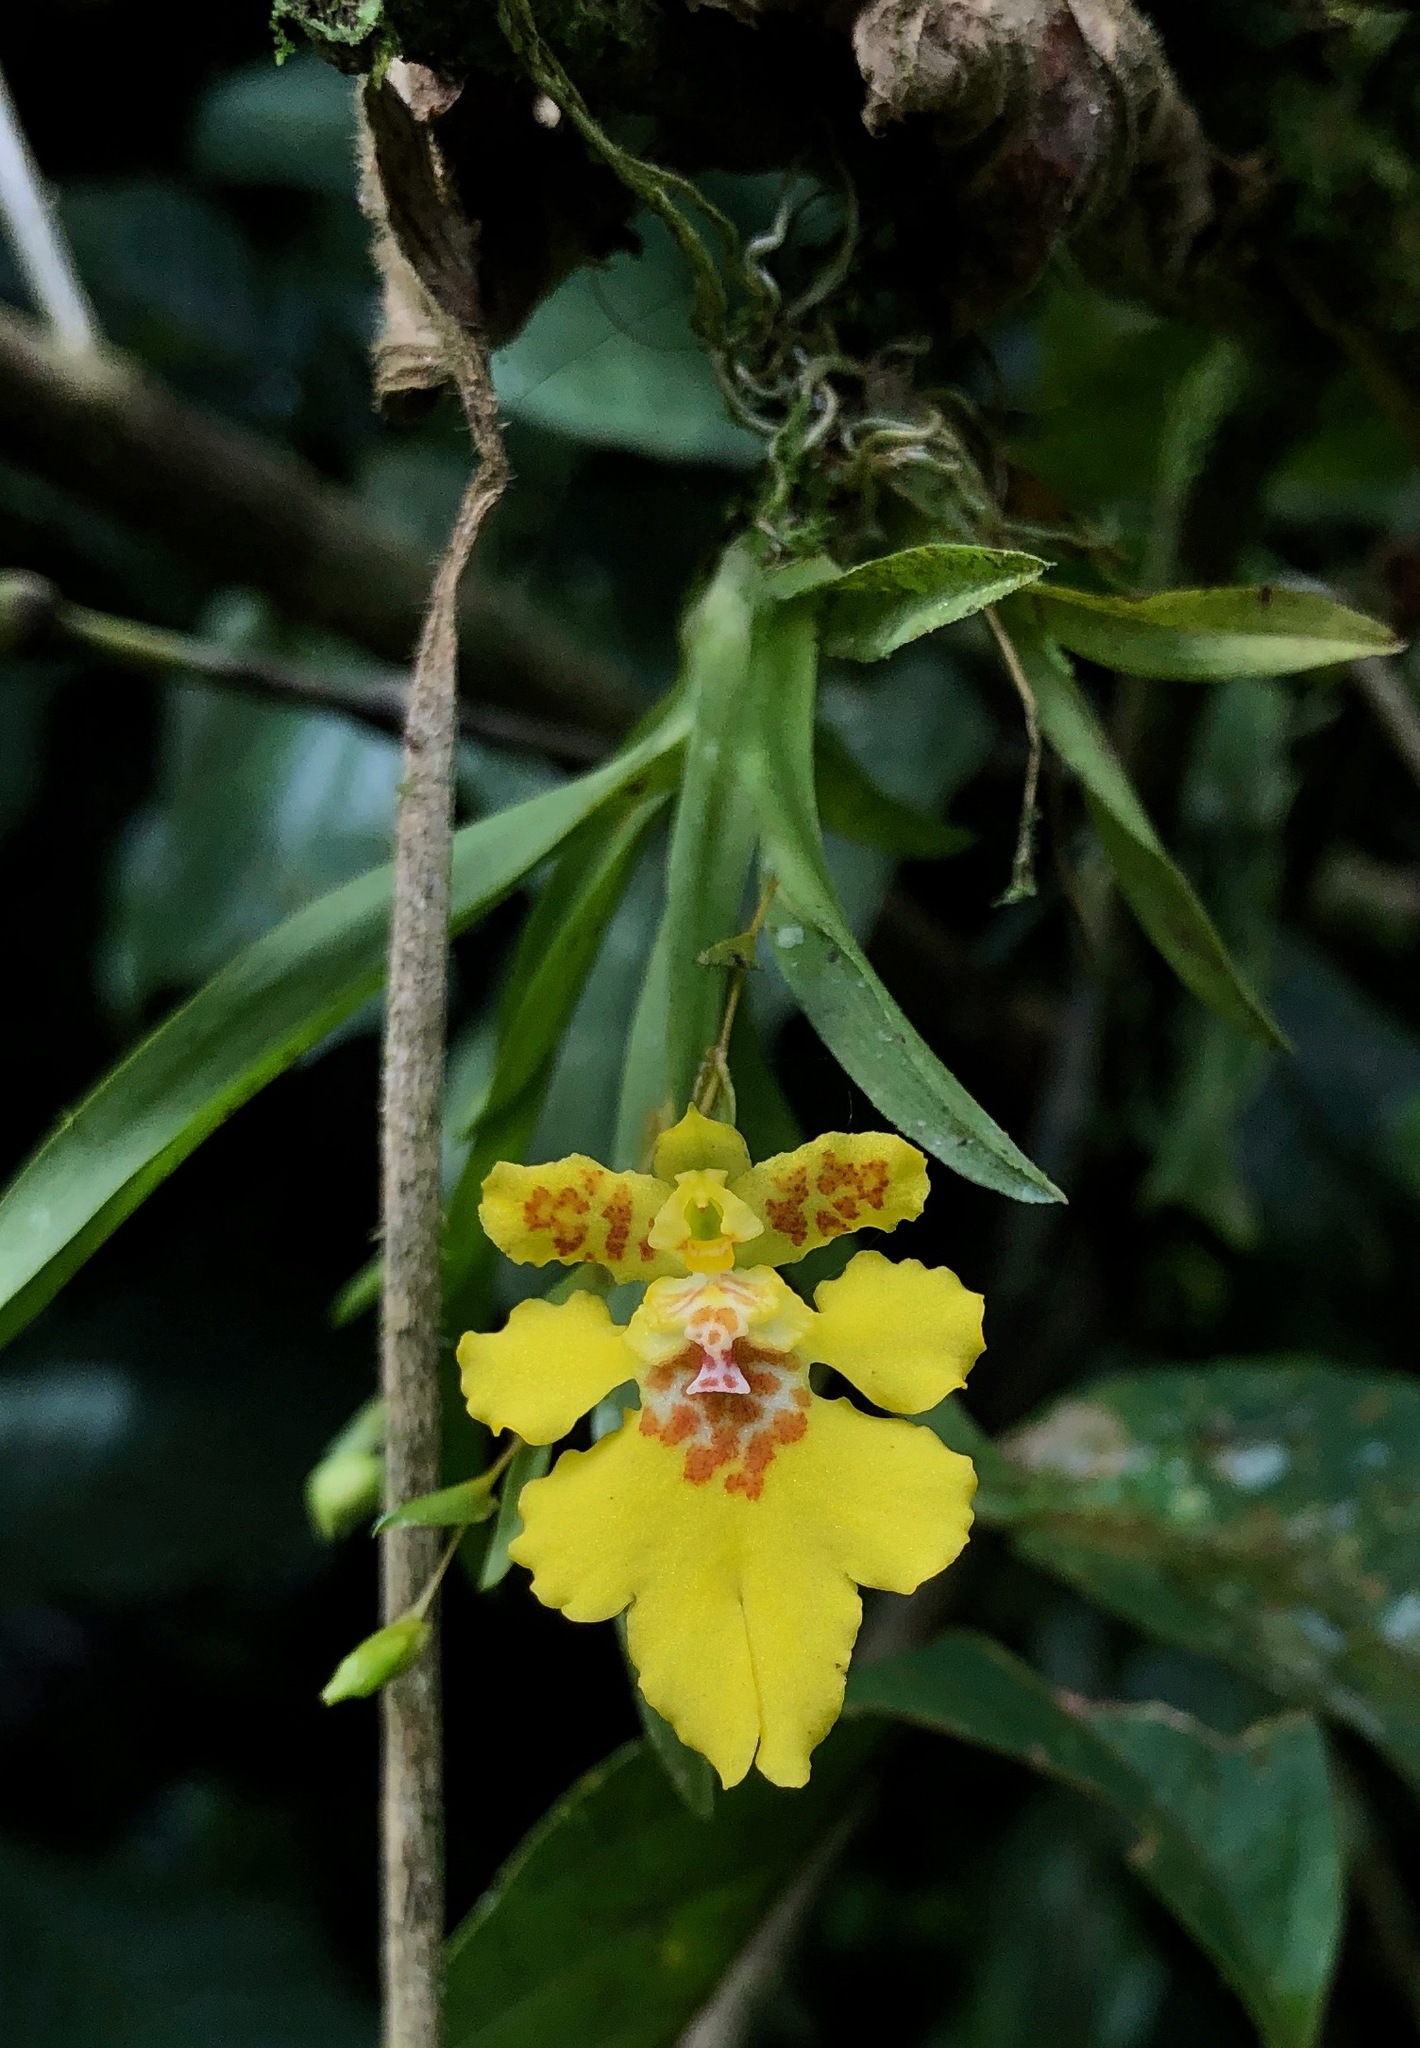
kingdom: Plantae
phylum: Tracheophyta
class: Liliopsida
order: Asparagales
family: Orchidaceae
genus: Erycina
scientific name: Erycina crista-galli
